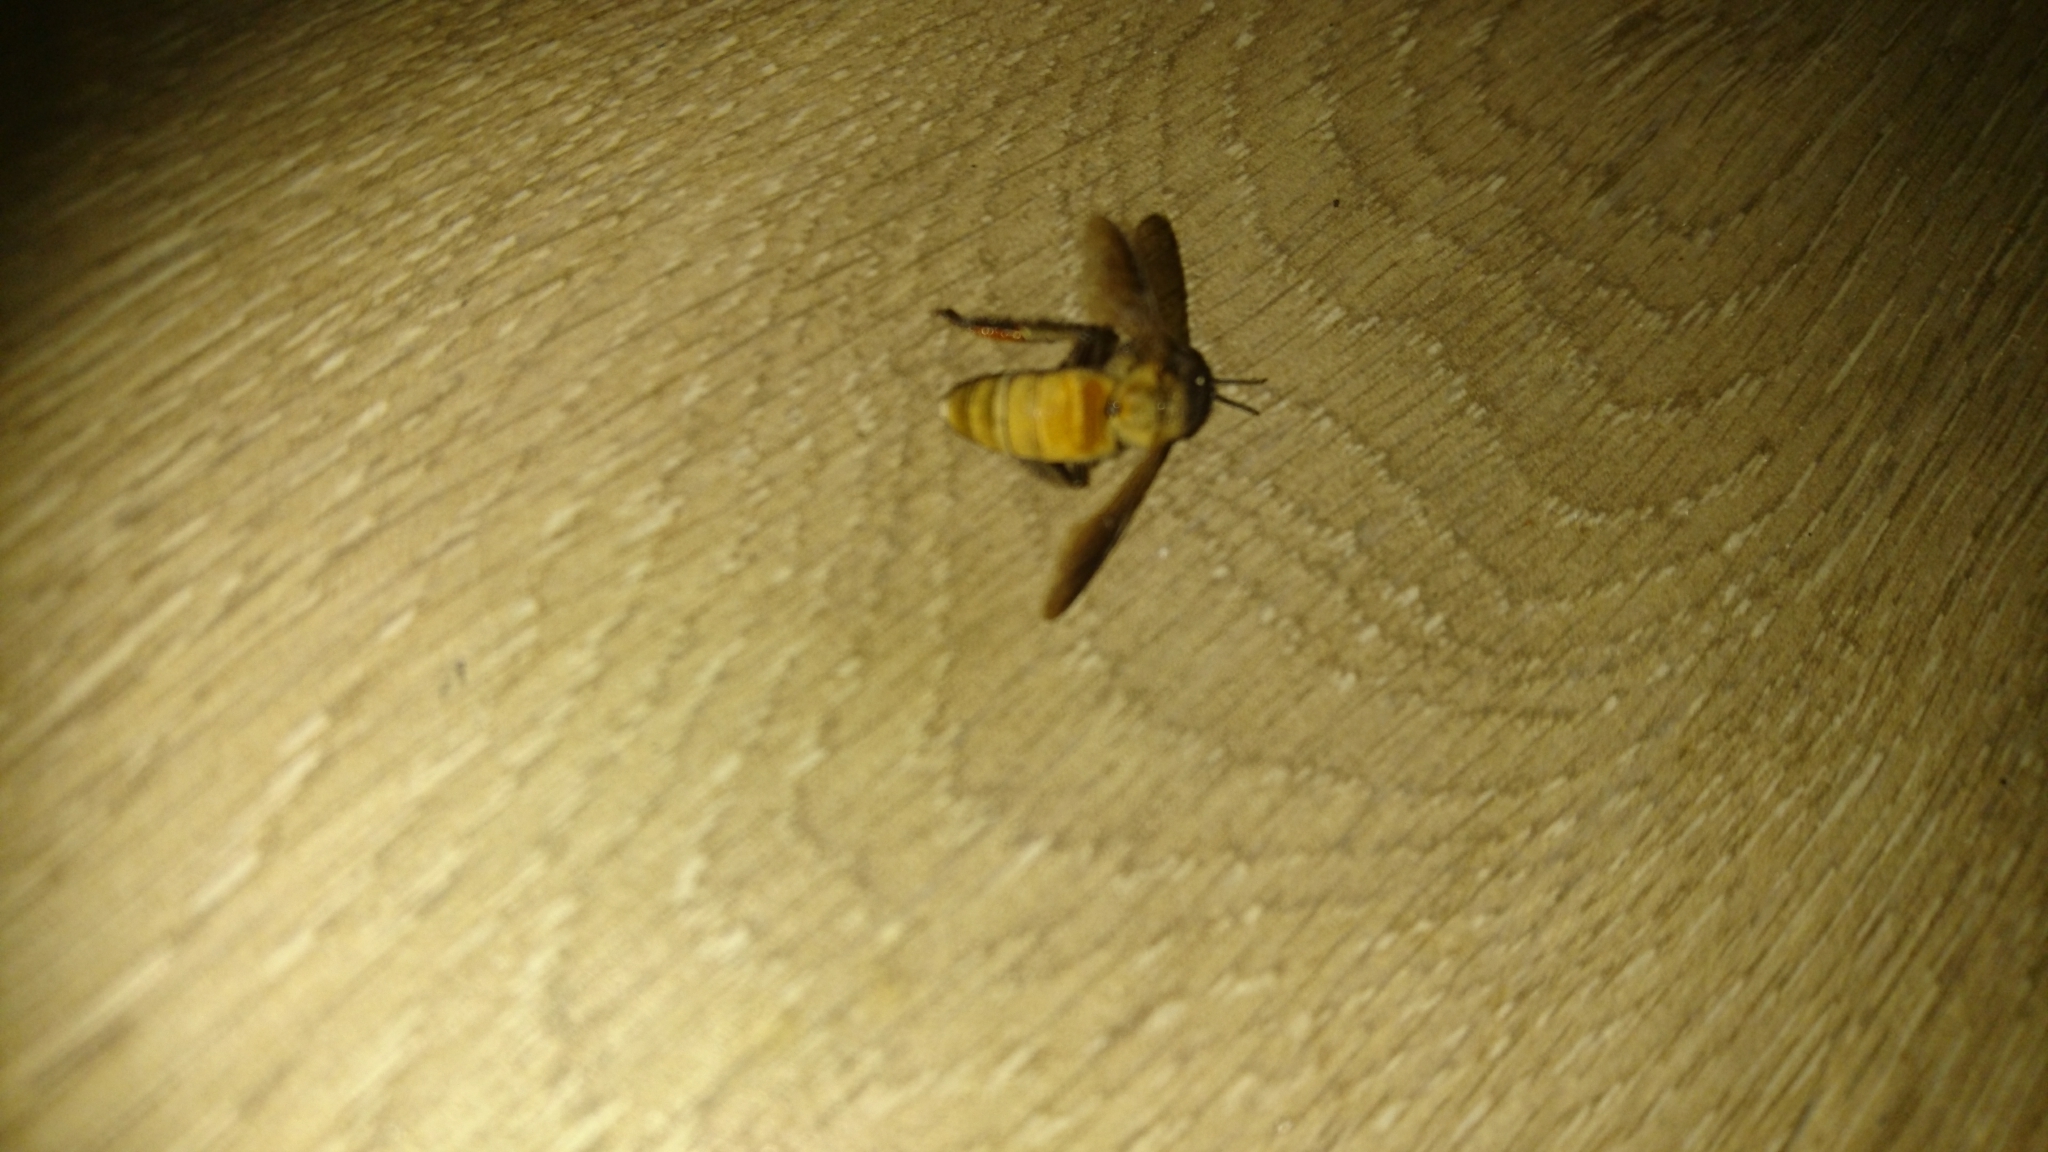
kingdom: Animalia
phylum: Arthropoda
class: Insecta
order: Hymenoptera
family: Apidae
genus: Apis
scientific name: Apis dorsata
